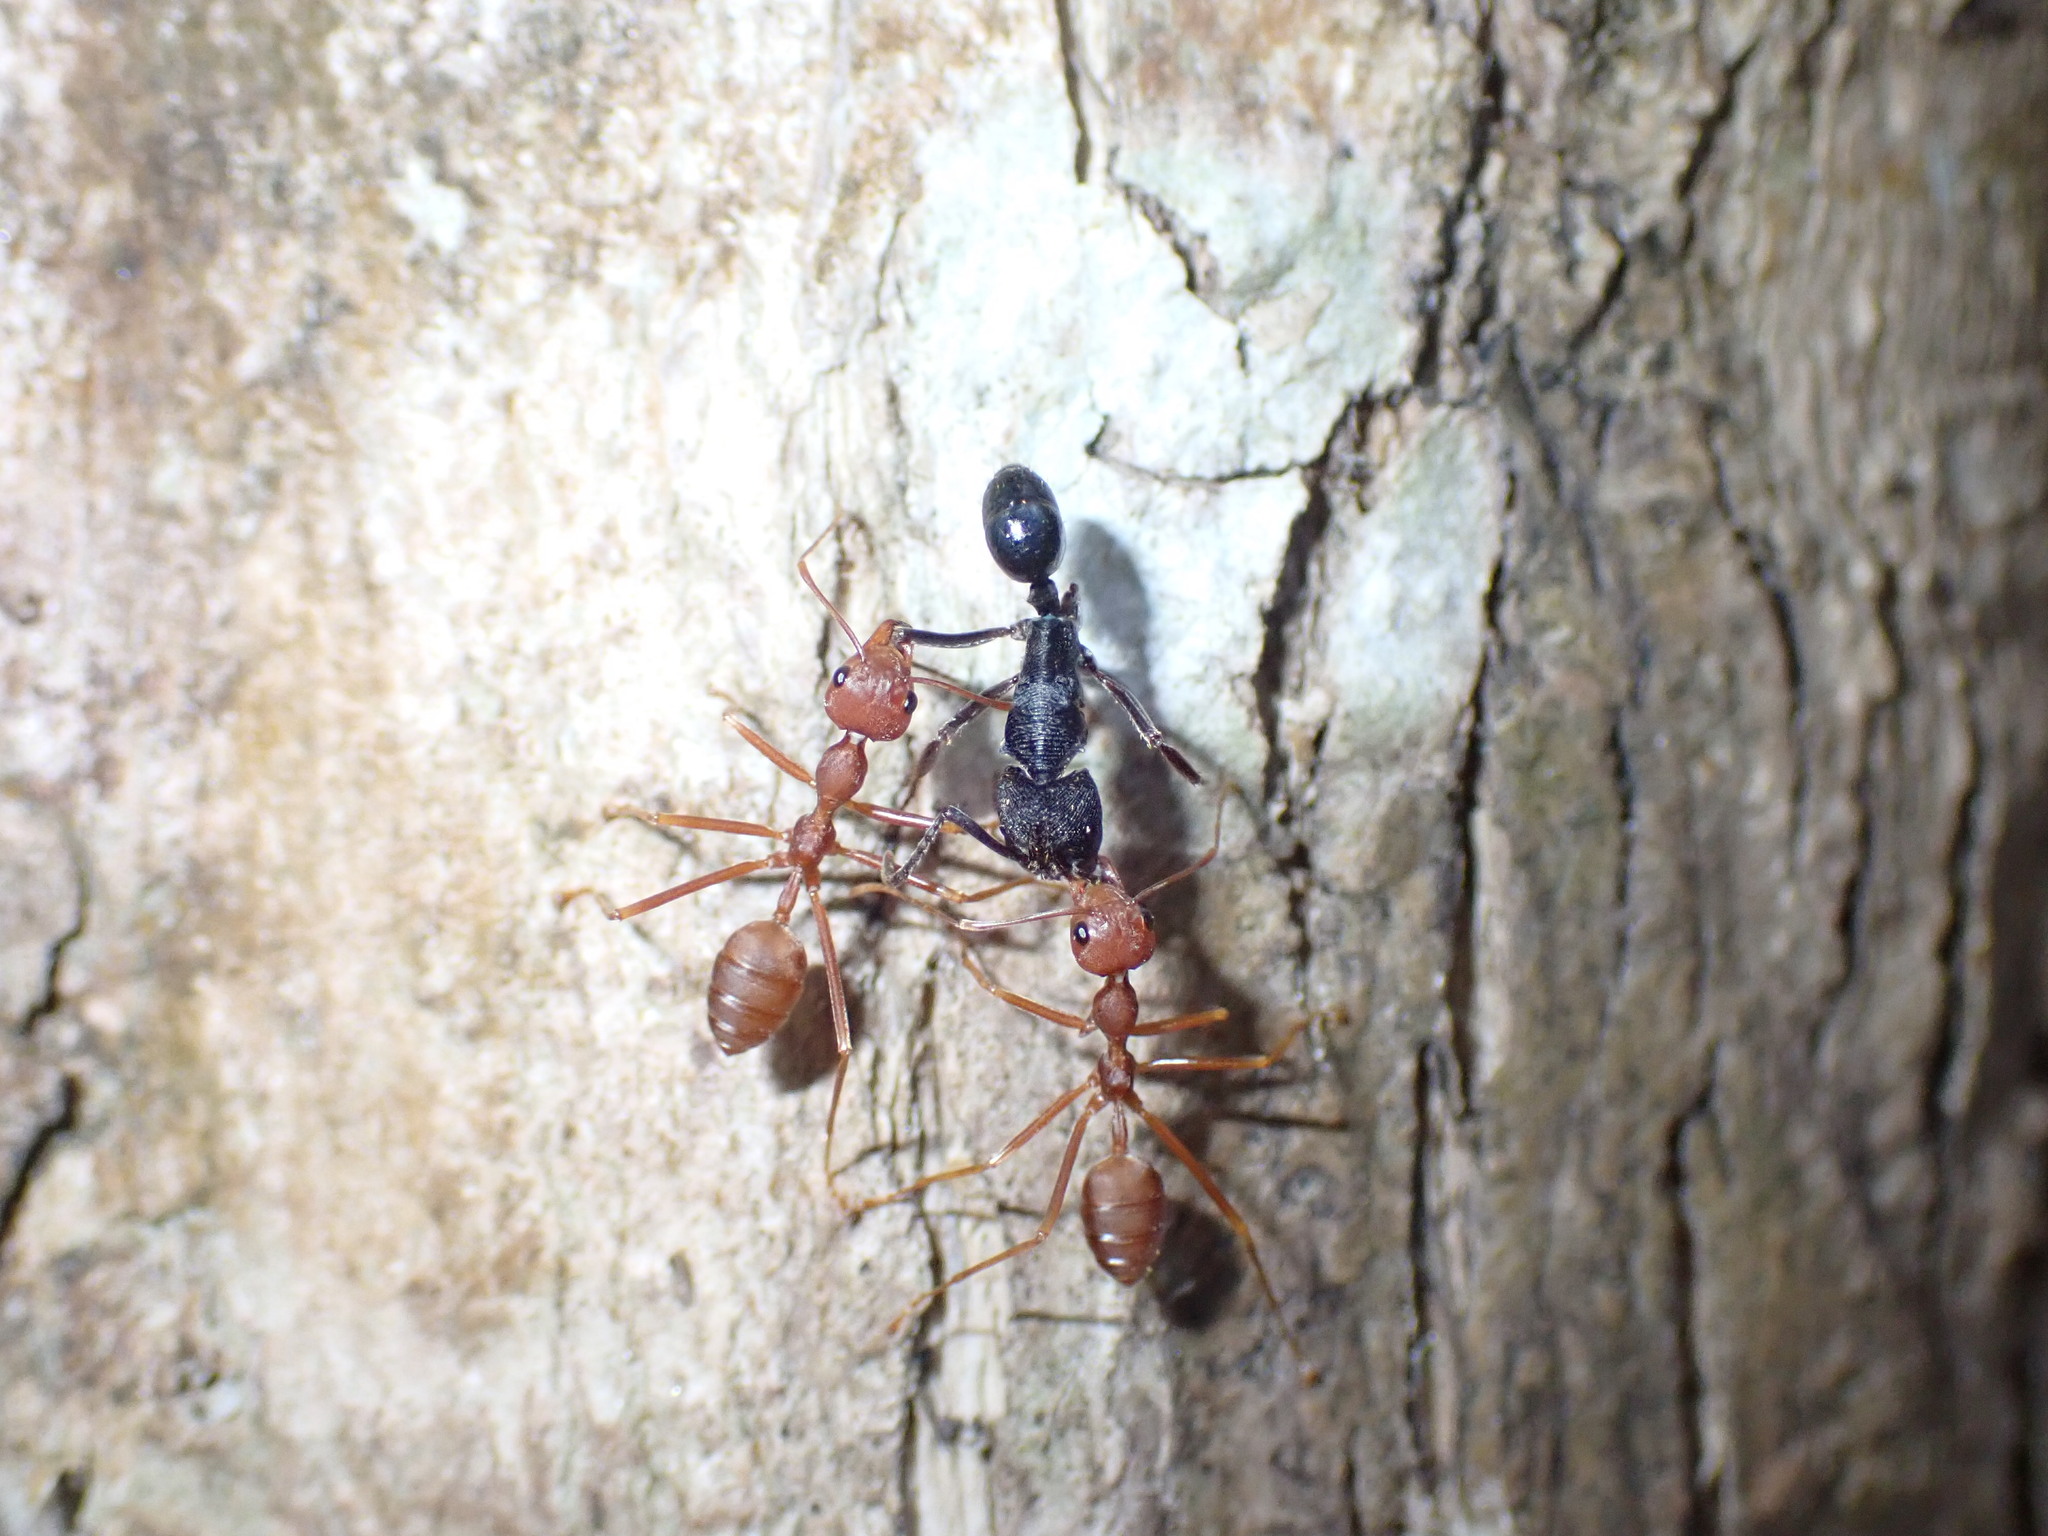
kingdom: Animalia
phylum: Arthropoda
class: Insecta
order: Hymenoptera
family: Formicidae
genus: Oecophylla
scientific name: Oecophylla smaragdina
